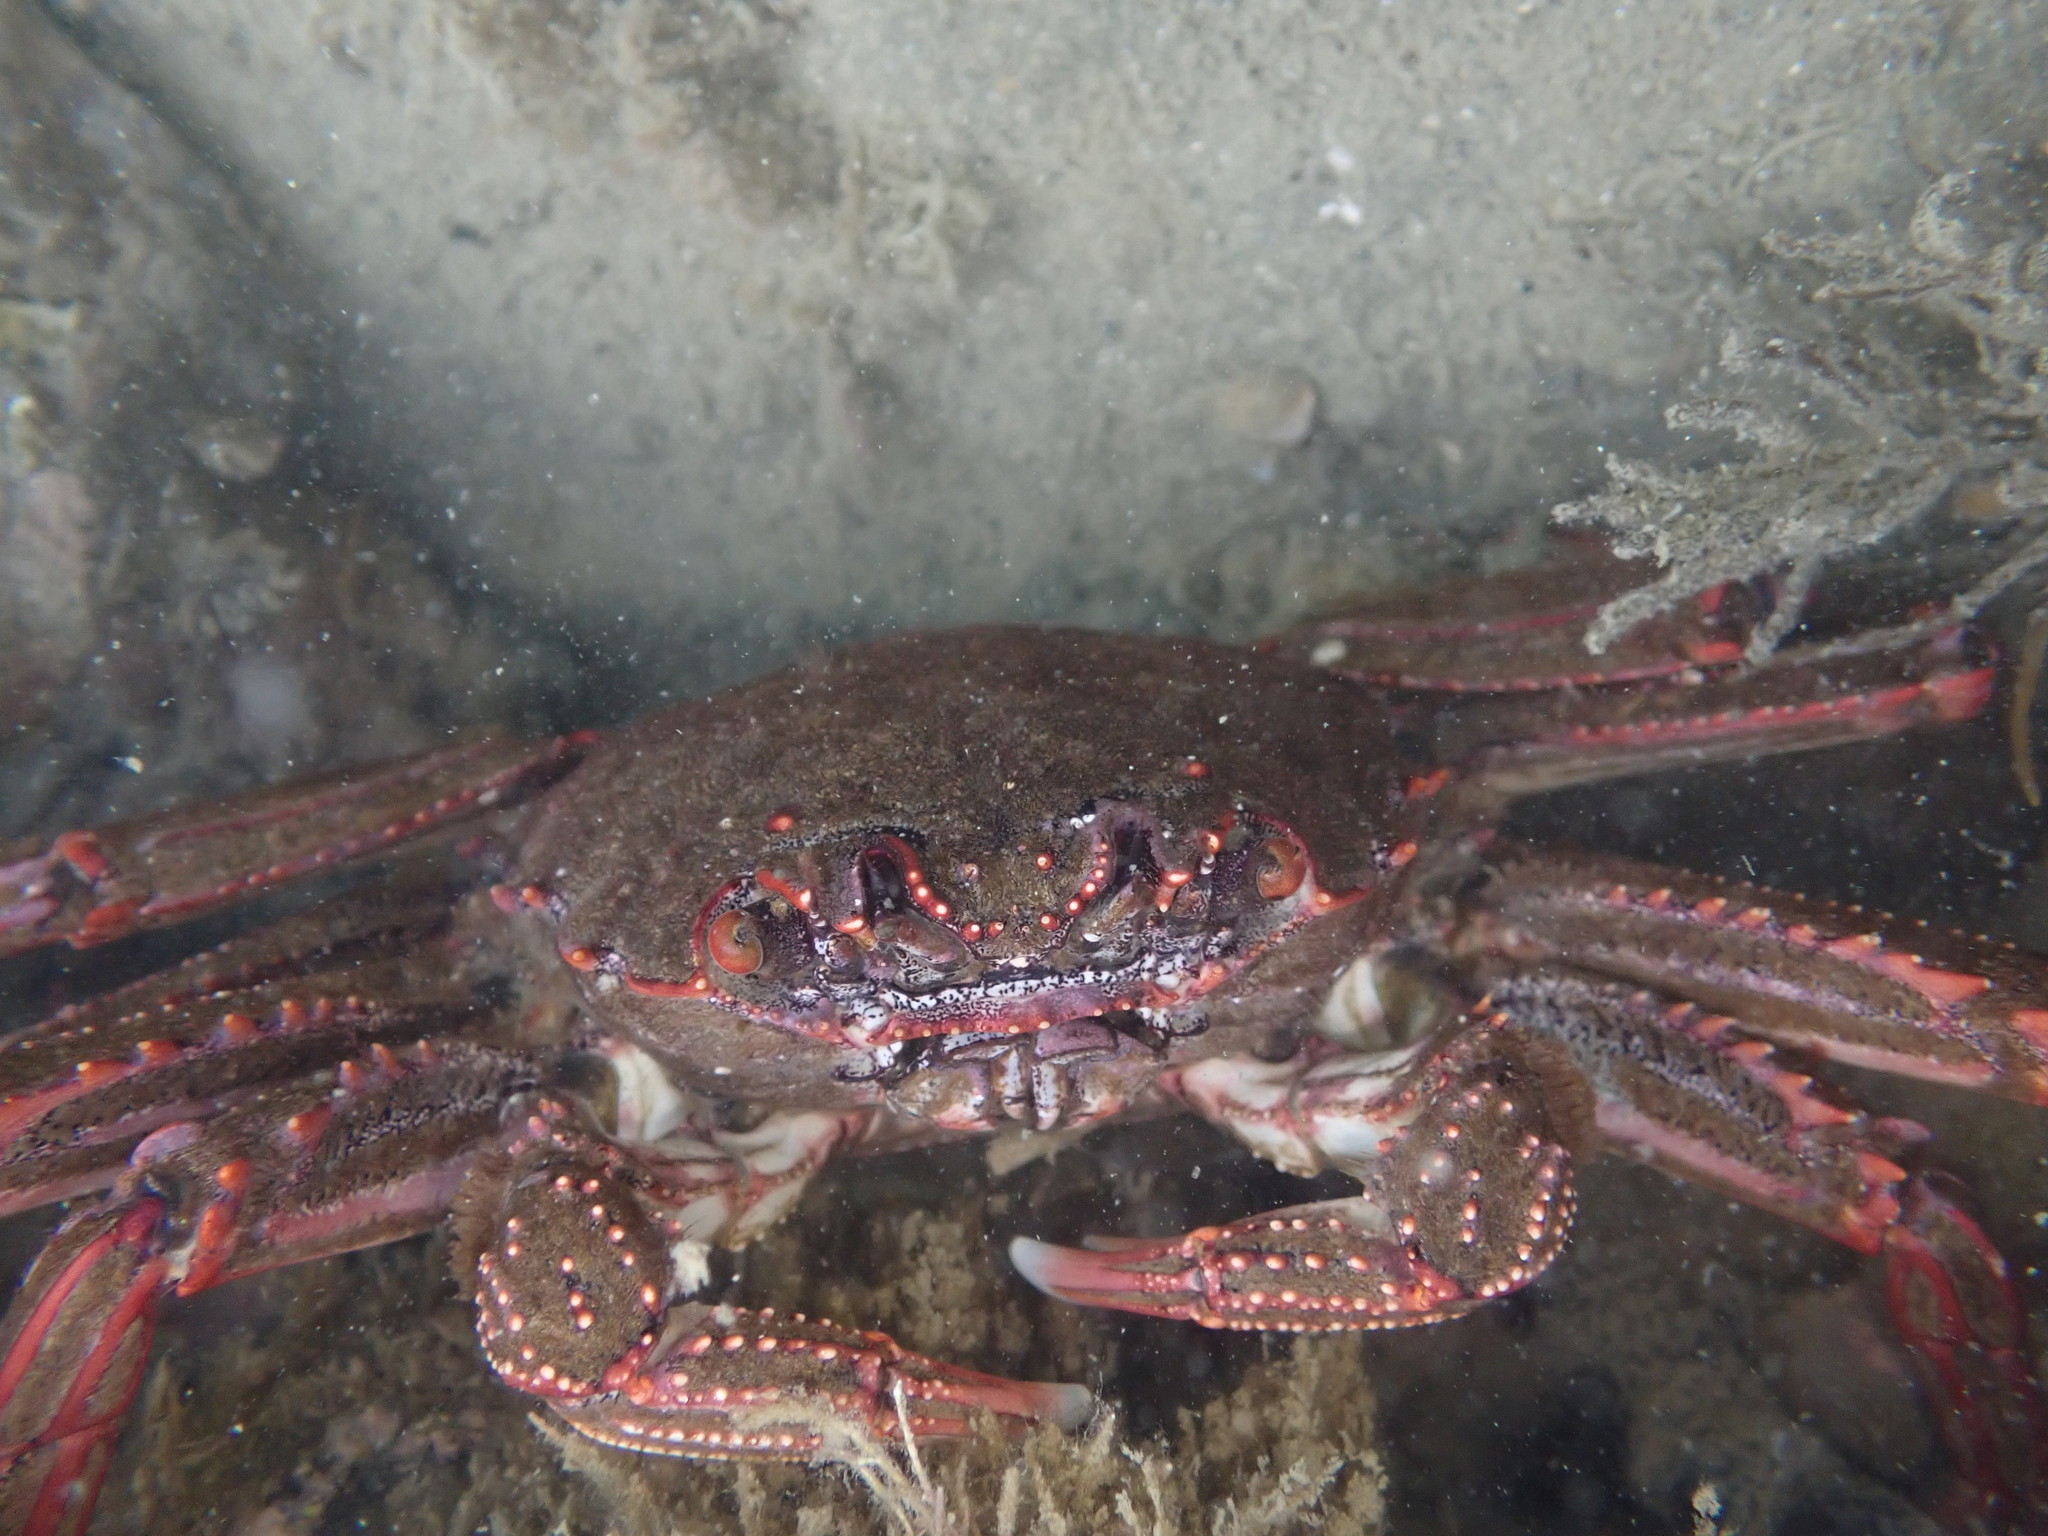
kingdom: Animalia
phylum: Arthropoda
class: Malacostraca
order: Decapoda
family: Plagusiidae
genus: Guinusia
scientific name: Guinusia chabrus
